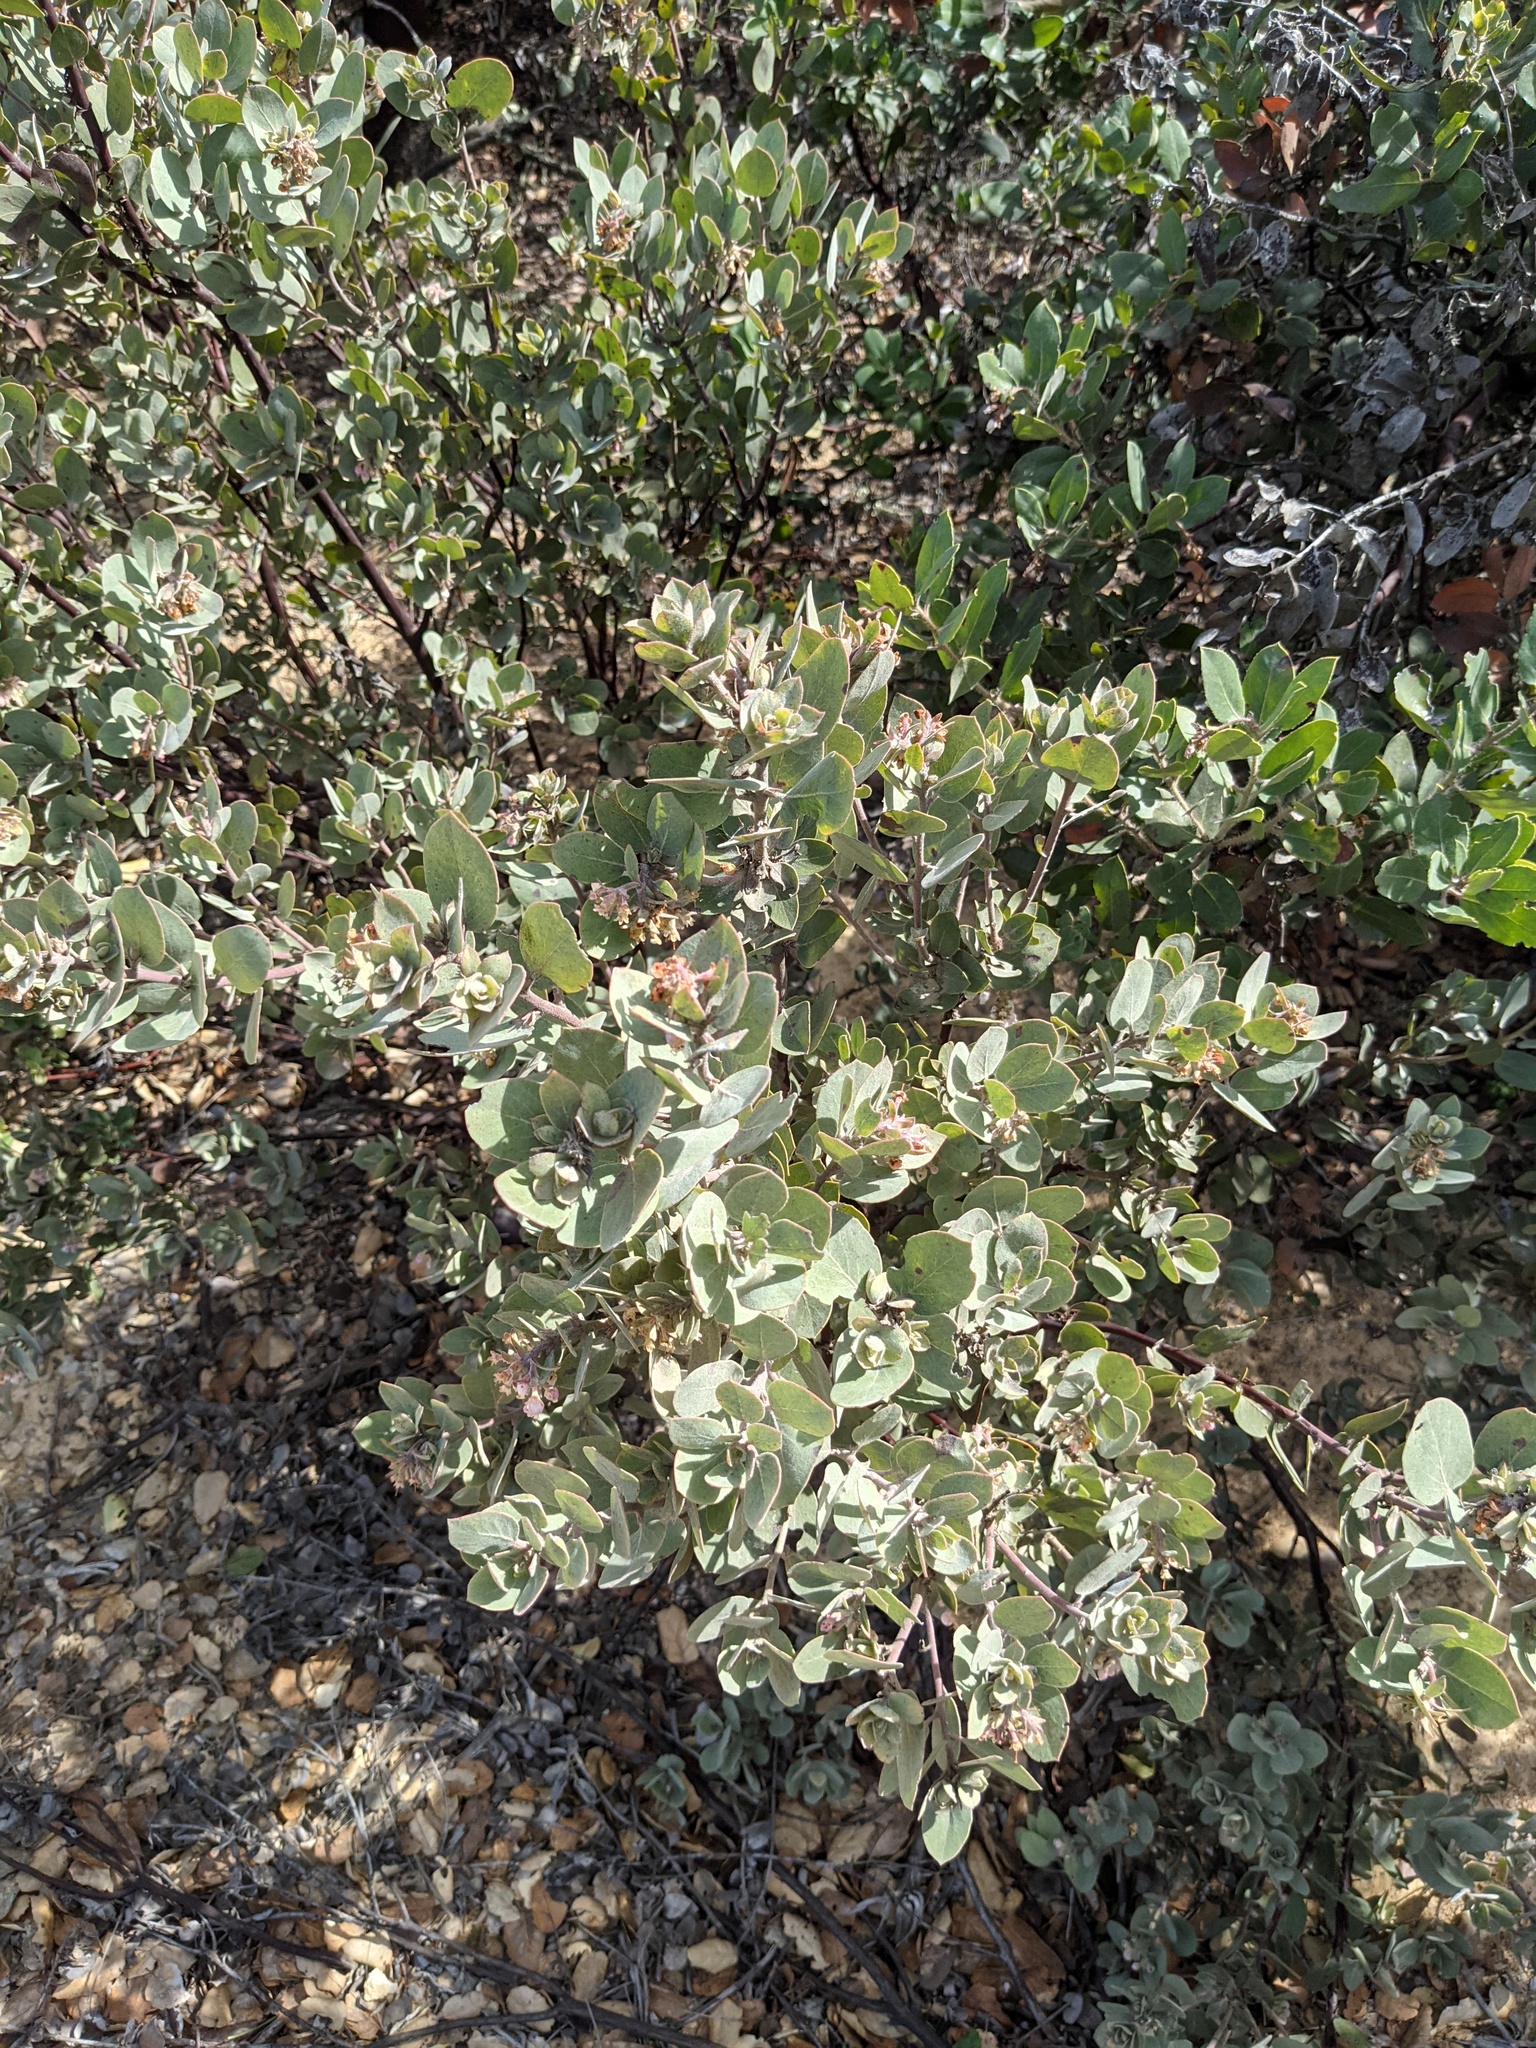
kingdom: Plantae
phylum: Tracheophyta
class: Magnoliopsida
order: Ericales
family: Ericaceae
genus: Arctostaphylos
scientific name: Arctostaphylos canescens
